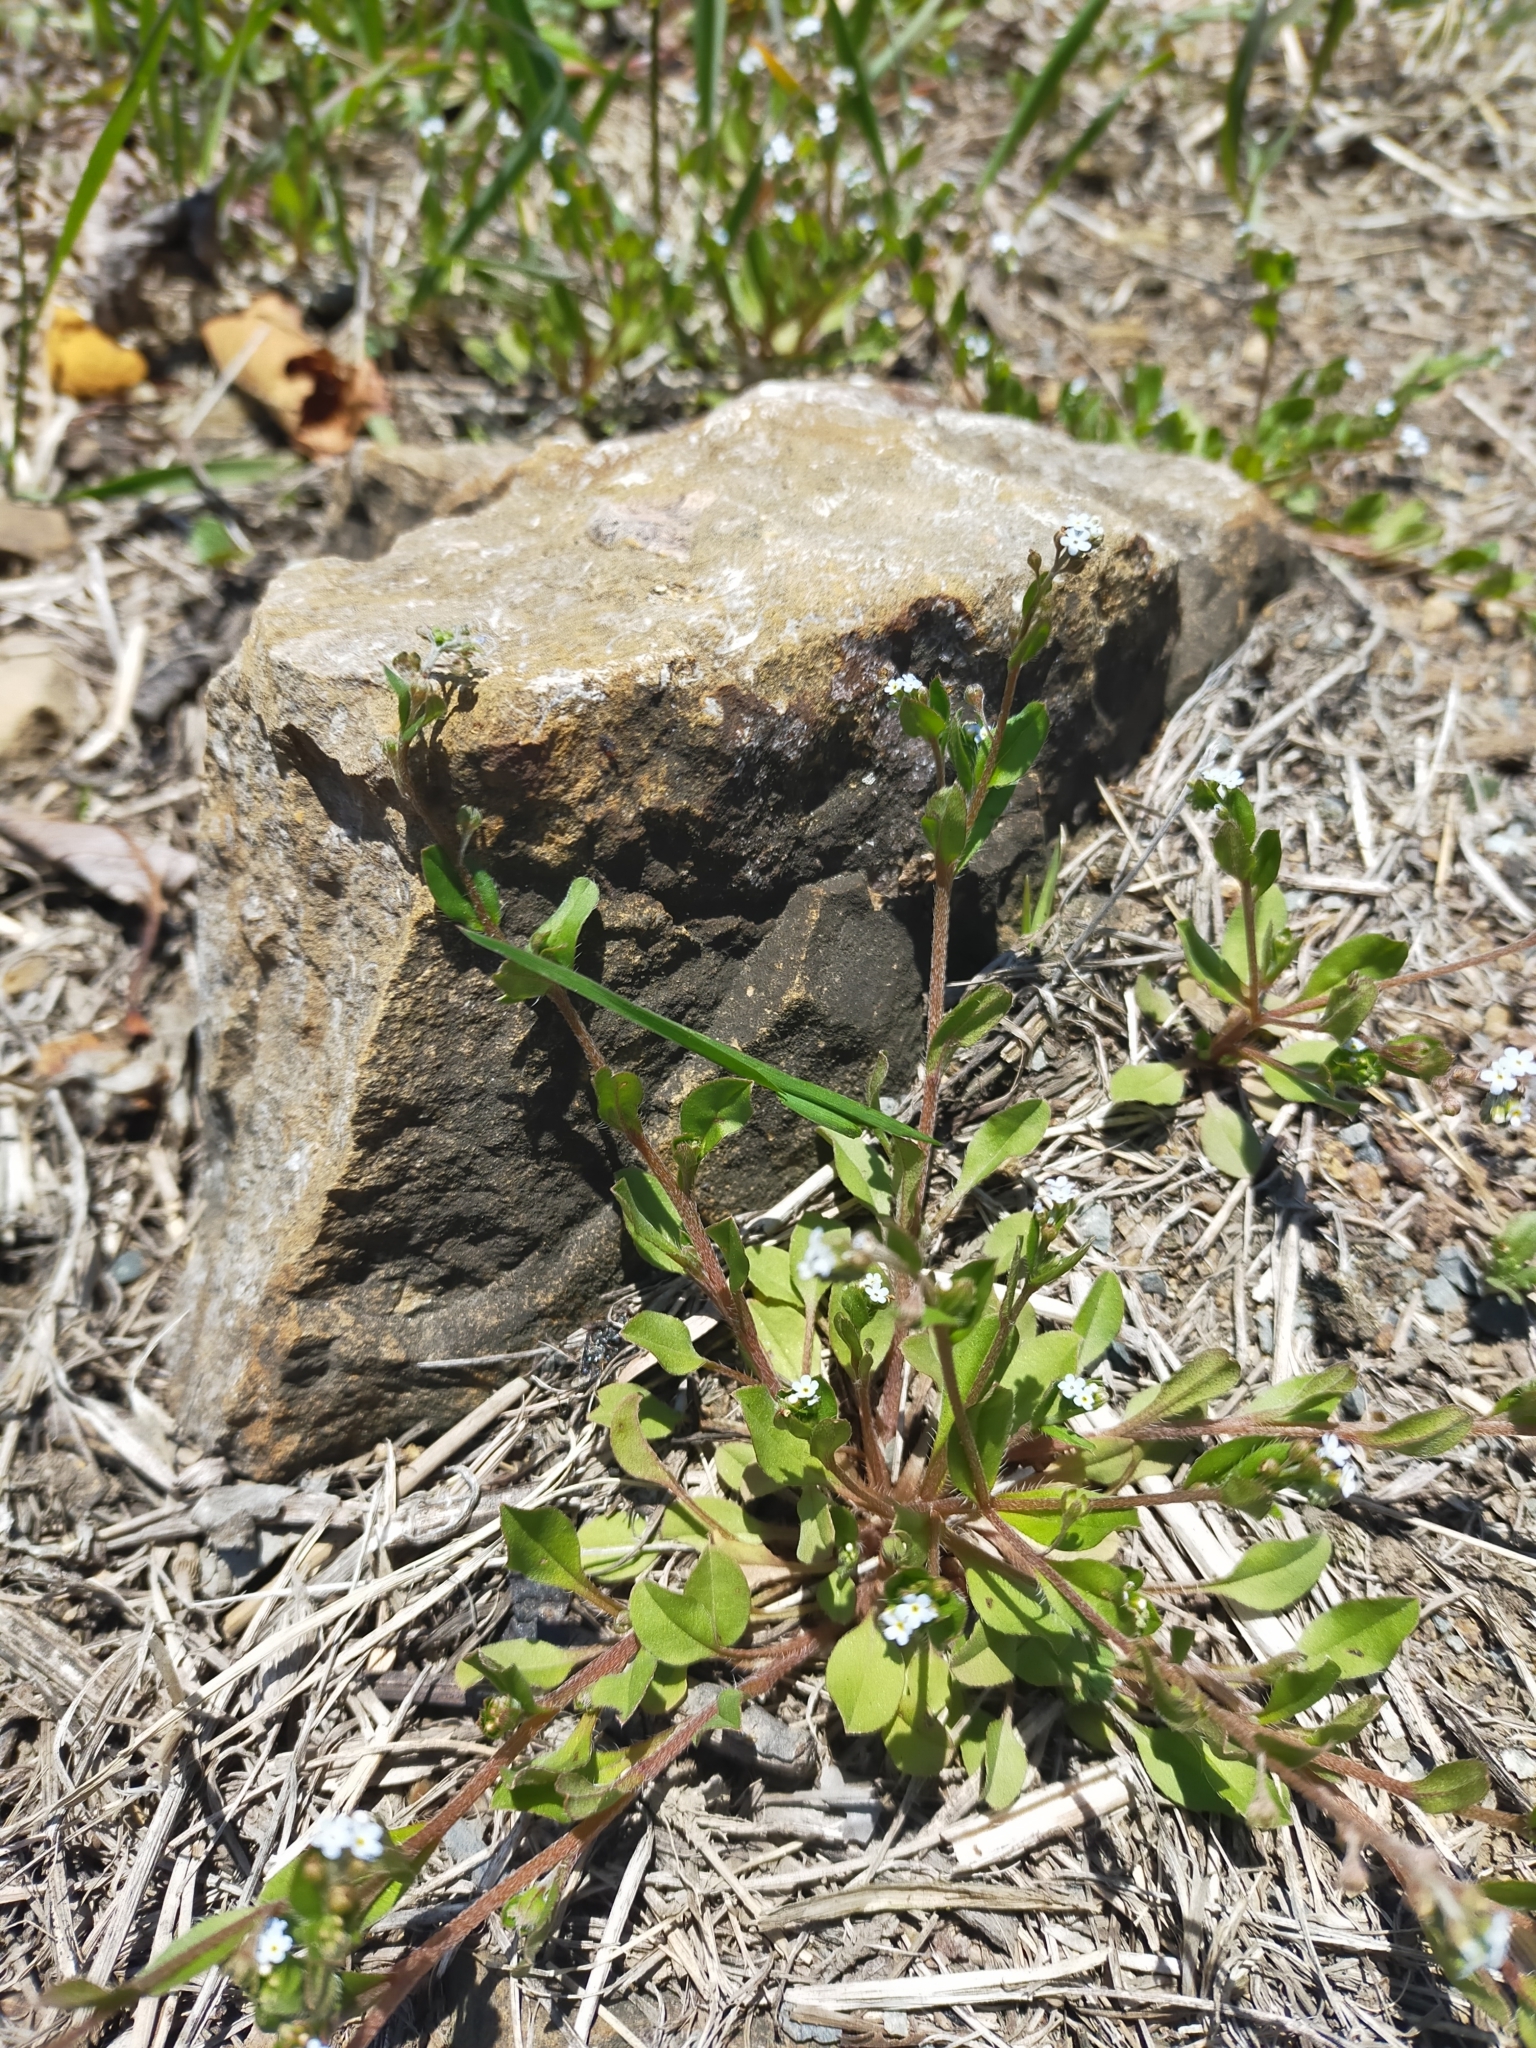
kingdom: Plantae
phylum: Tracheophyta
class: Magnoliopsida
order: Boraginales
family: Boraginaceae
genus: Trigonotis
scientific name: Trigonotis peduncularis
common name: Cucumber herb
